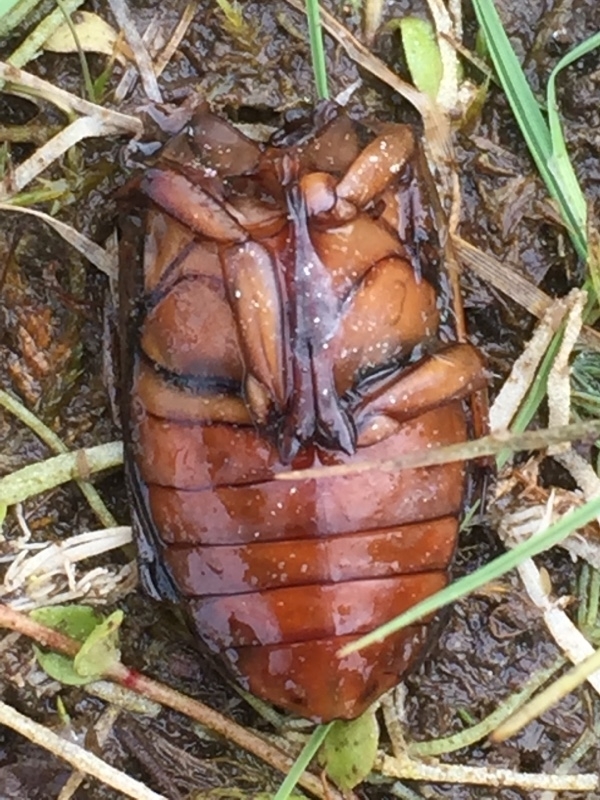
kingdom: Animalia
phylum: Arthropoda
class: Insecta
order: Coleoptera
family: Dytiscidae
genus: Dytiscus
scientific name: Dytiscus marginalis
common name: Great water beetle
